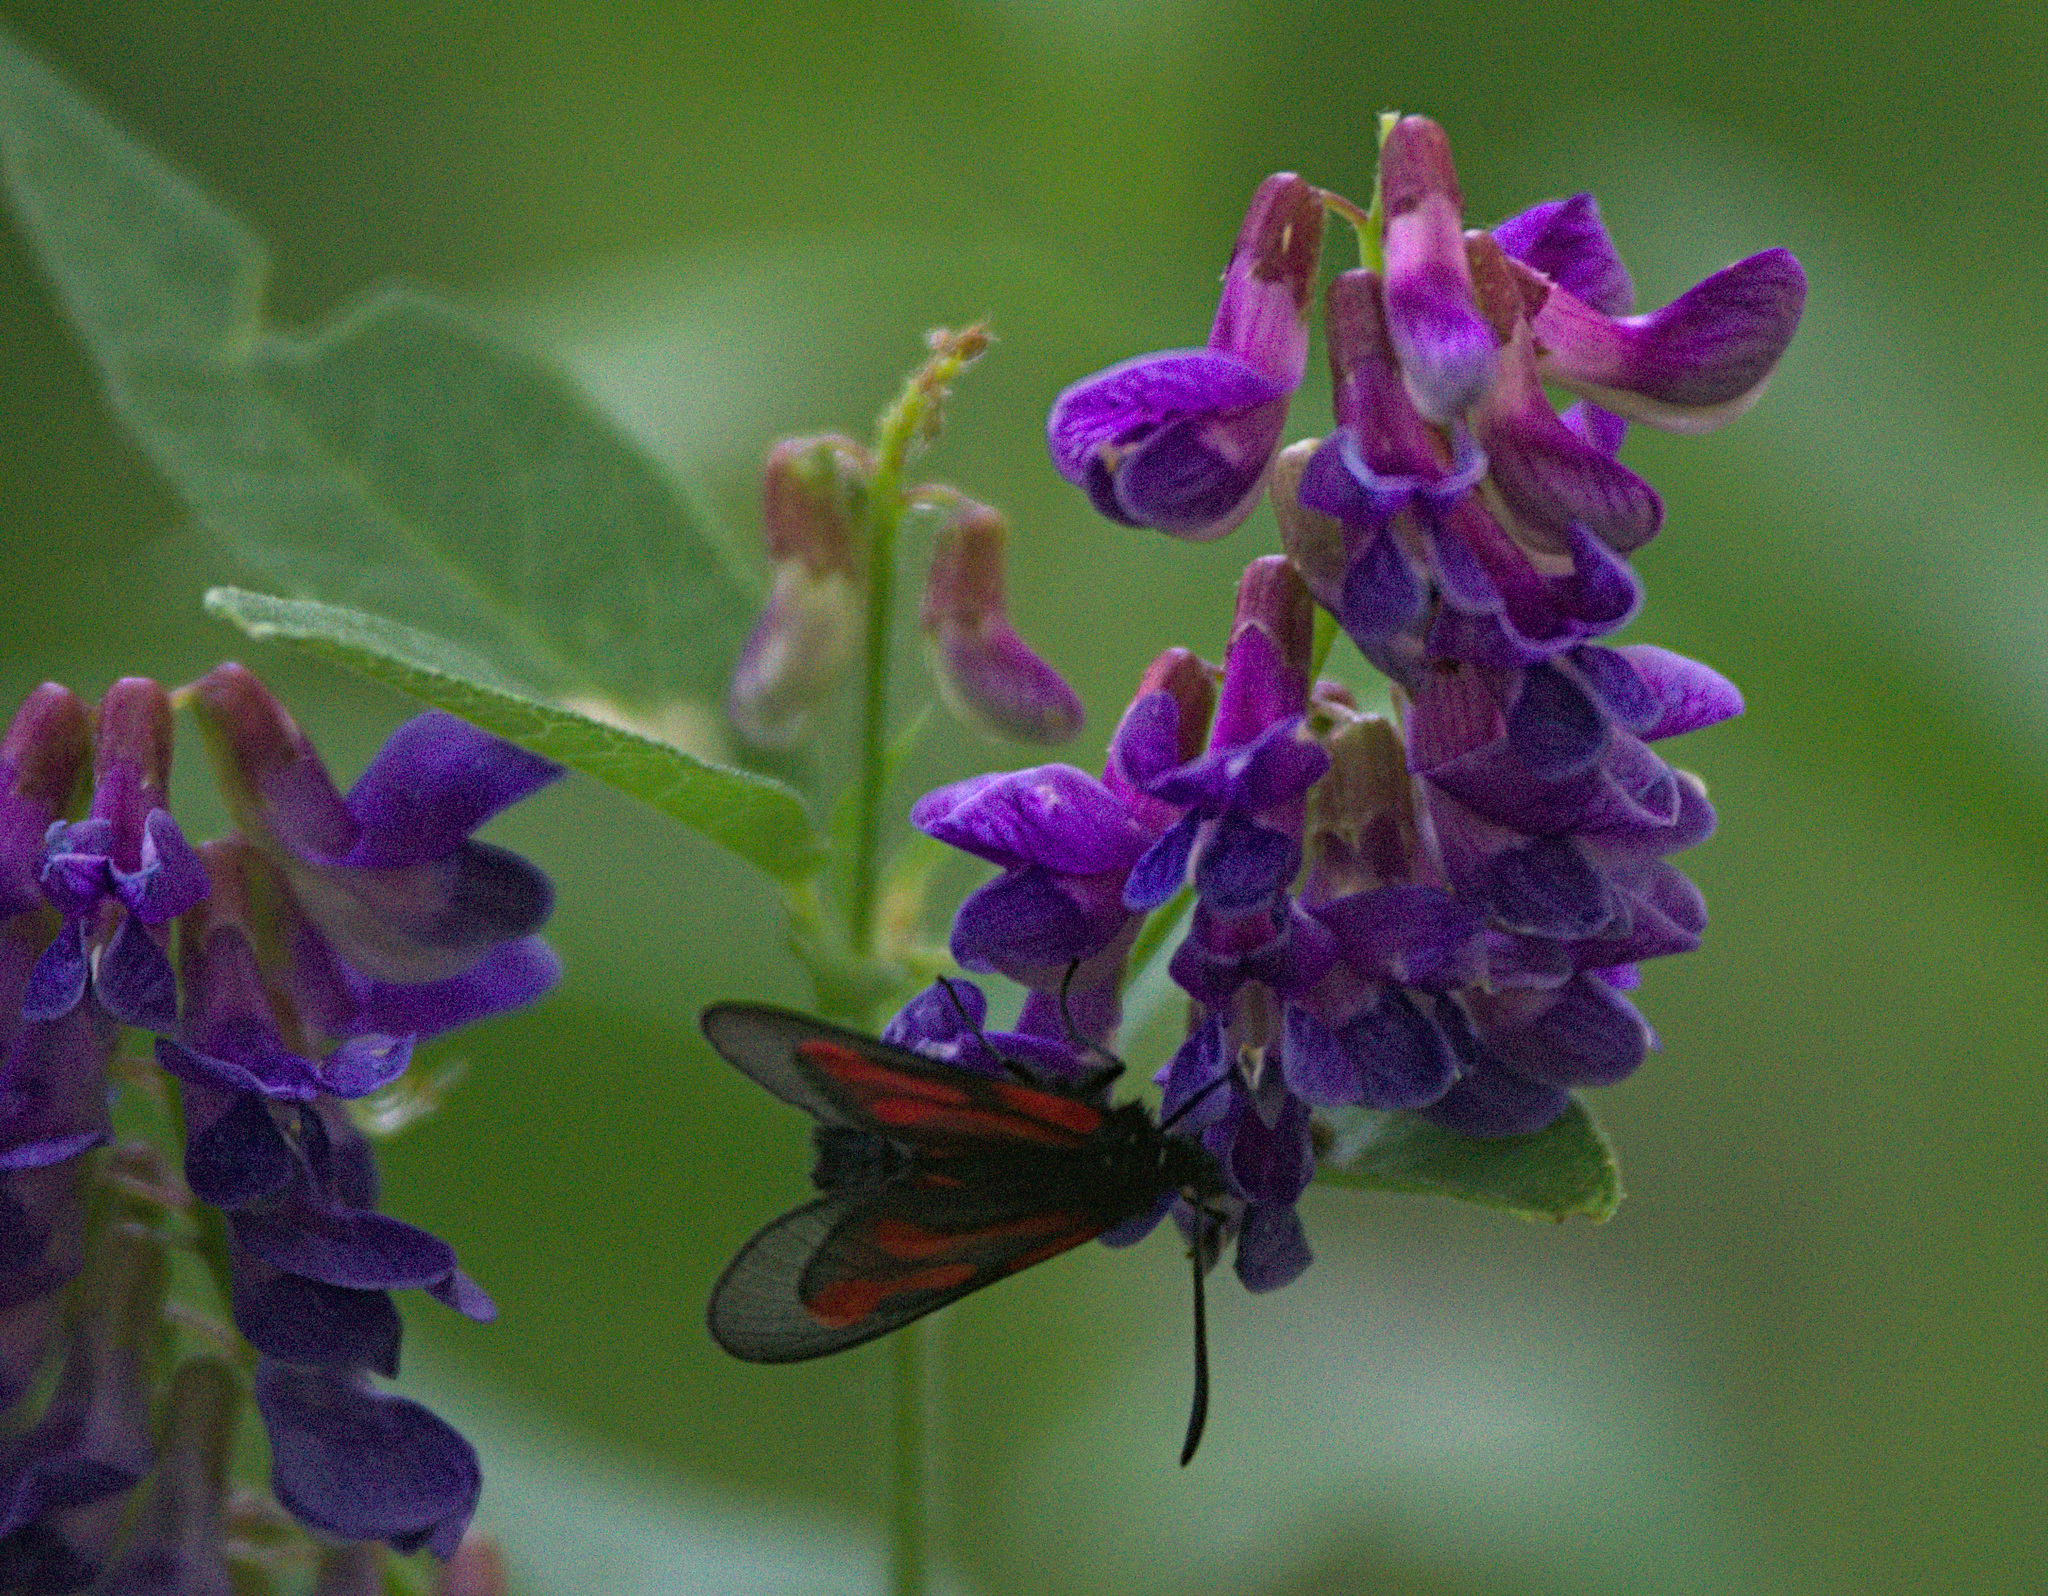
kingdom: Animalia
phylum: Arthropoda
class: Insecta
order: Lepidoptera
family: Zygaenidae
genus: Zygaena
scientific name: Zygaena osterodensis
